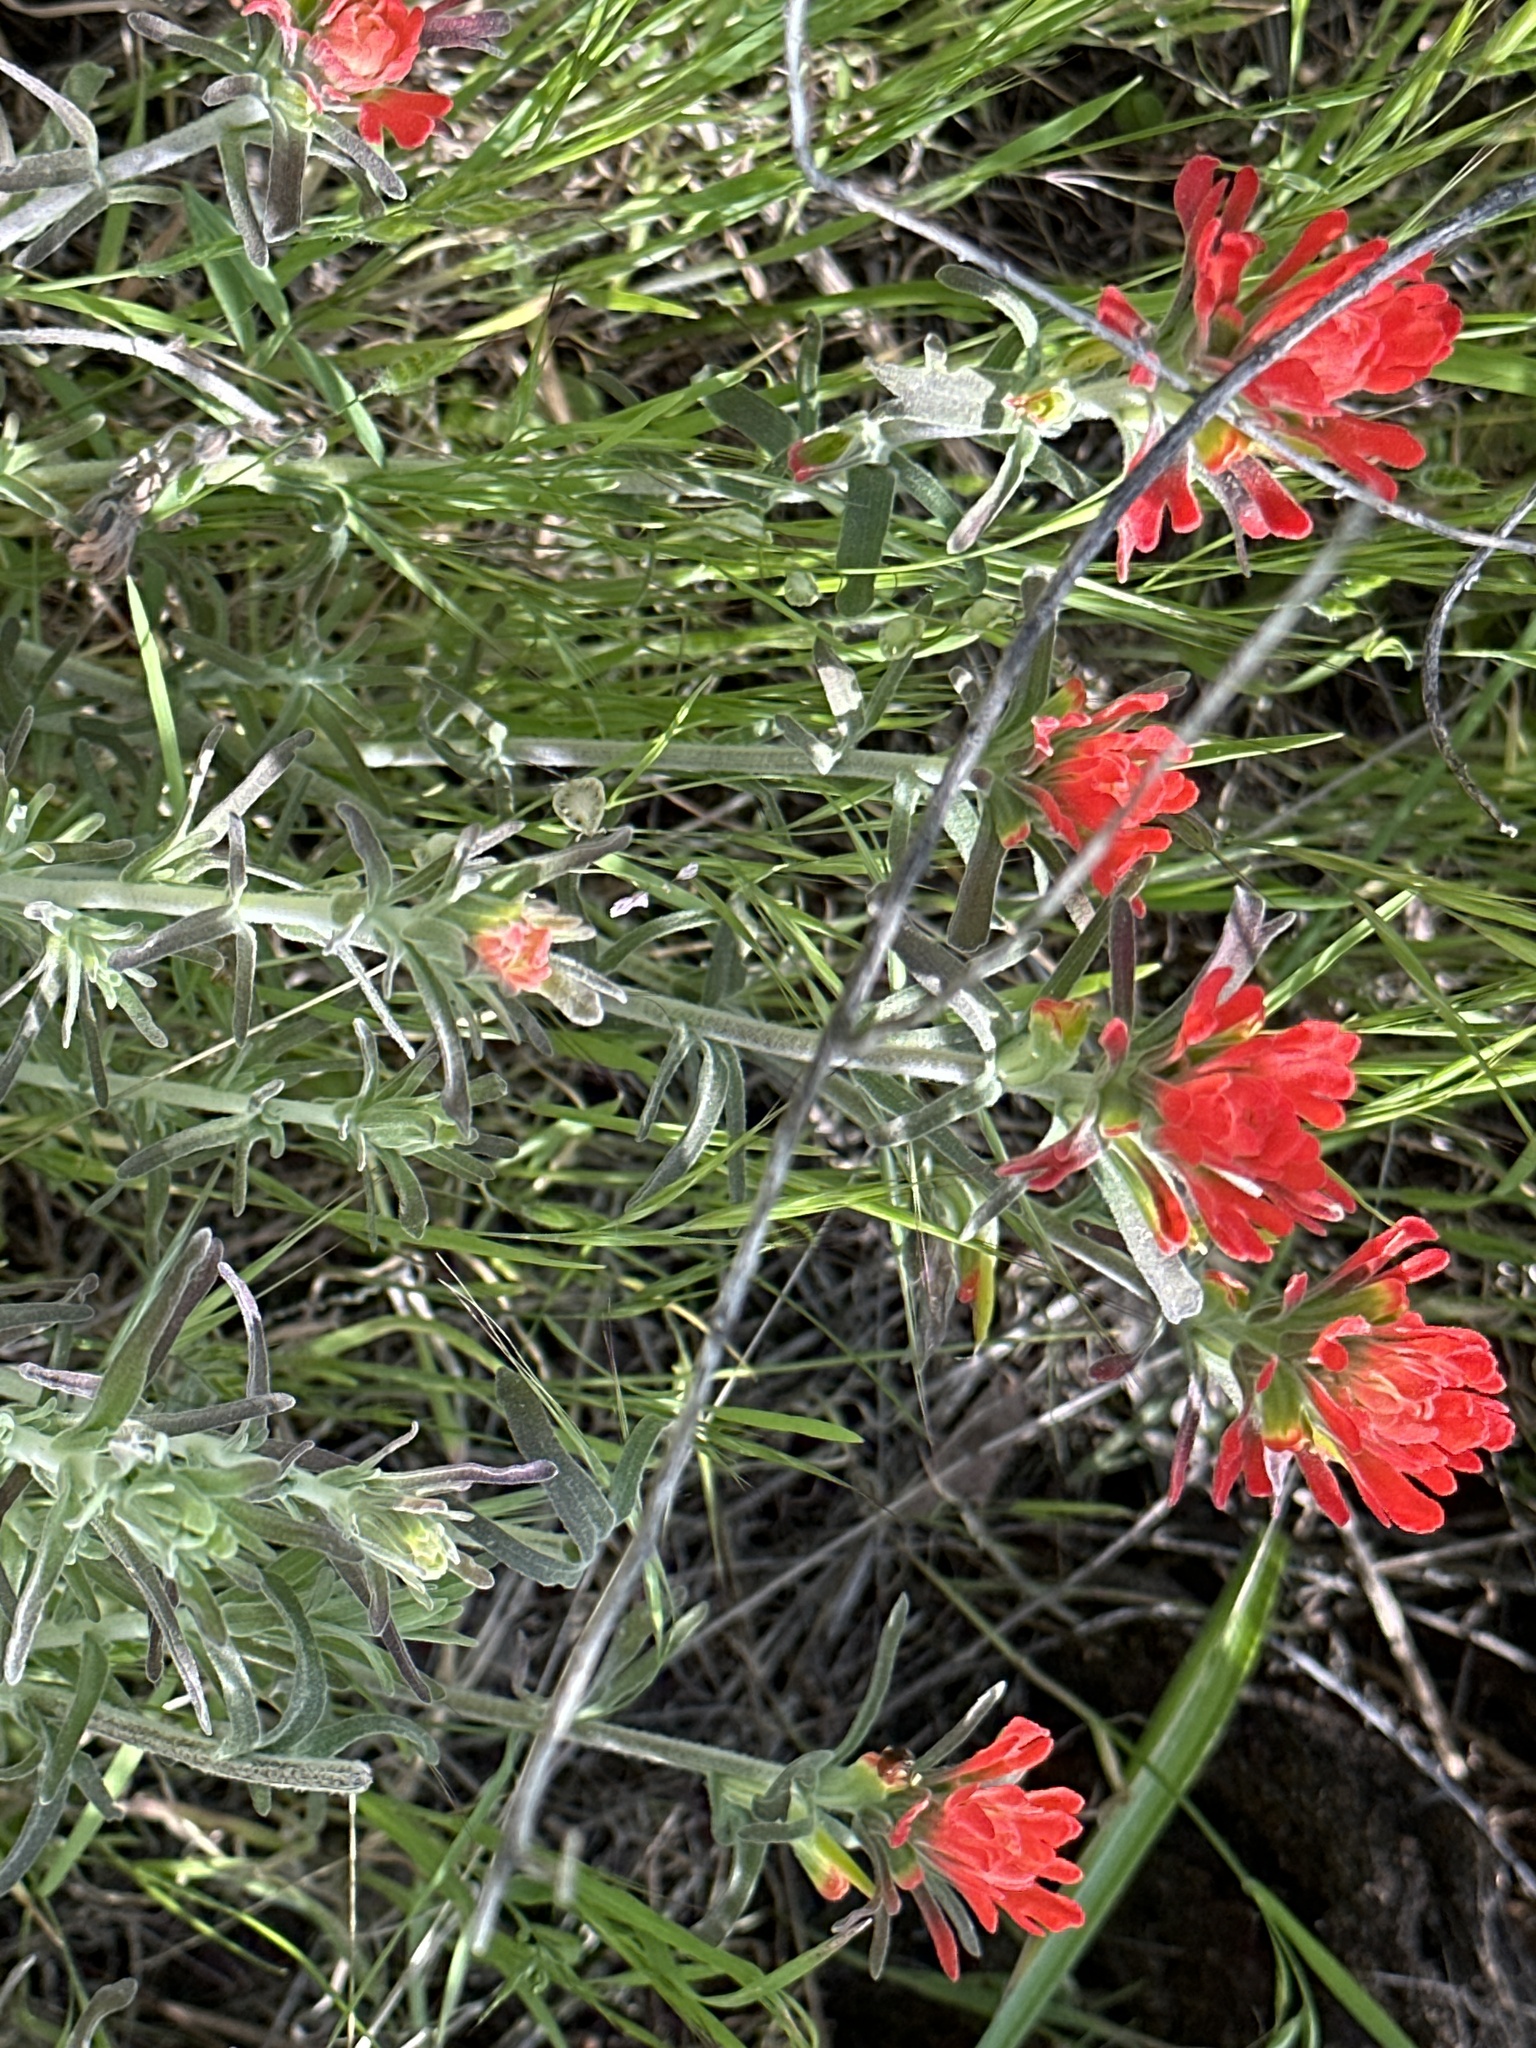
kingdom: Plantae
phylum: Tracheophyta
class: Magnoliopsida
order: Lamiales
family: Orobanchaceae
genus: Castilleja
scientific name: Castilleja foliolosa
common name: Woolly indian paintbrush
